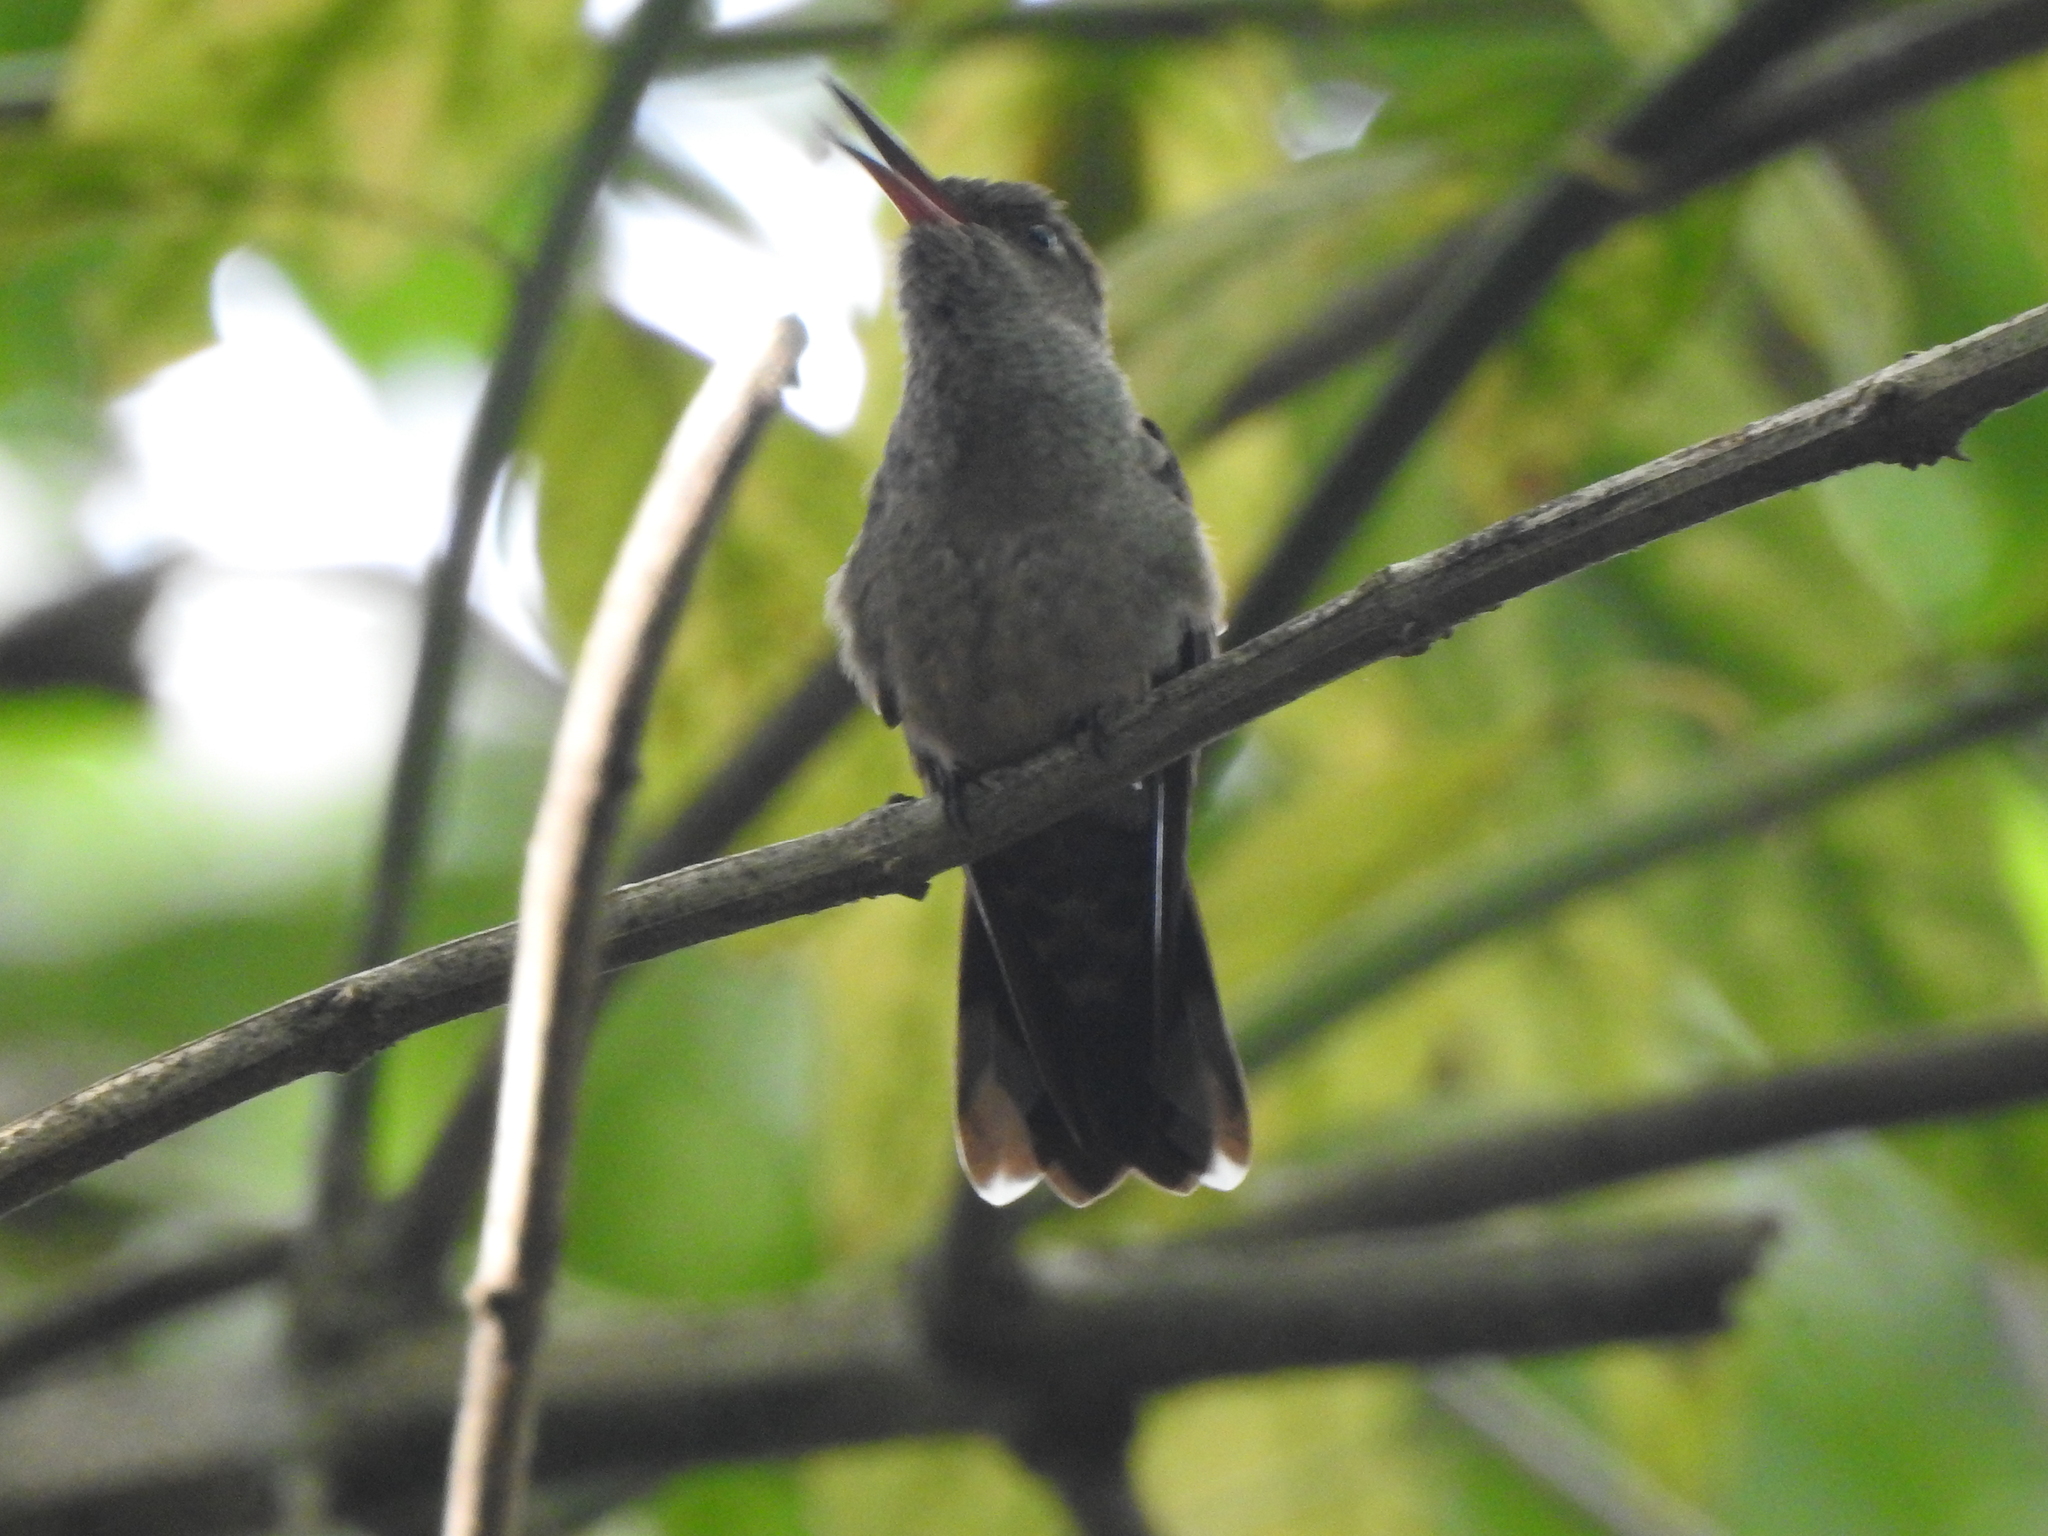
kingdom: Animalia
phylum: Chordata
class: Aves
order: Apodiformes
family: Trochilidae
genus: Phaeochroa
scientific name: Phaeochroa cuvierii
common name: Scaly-breasted hummingbird
